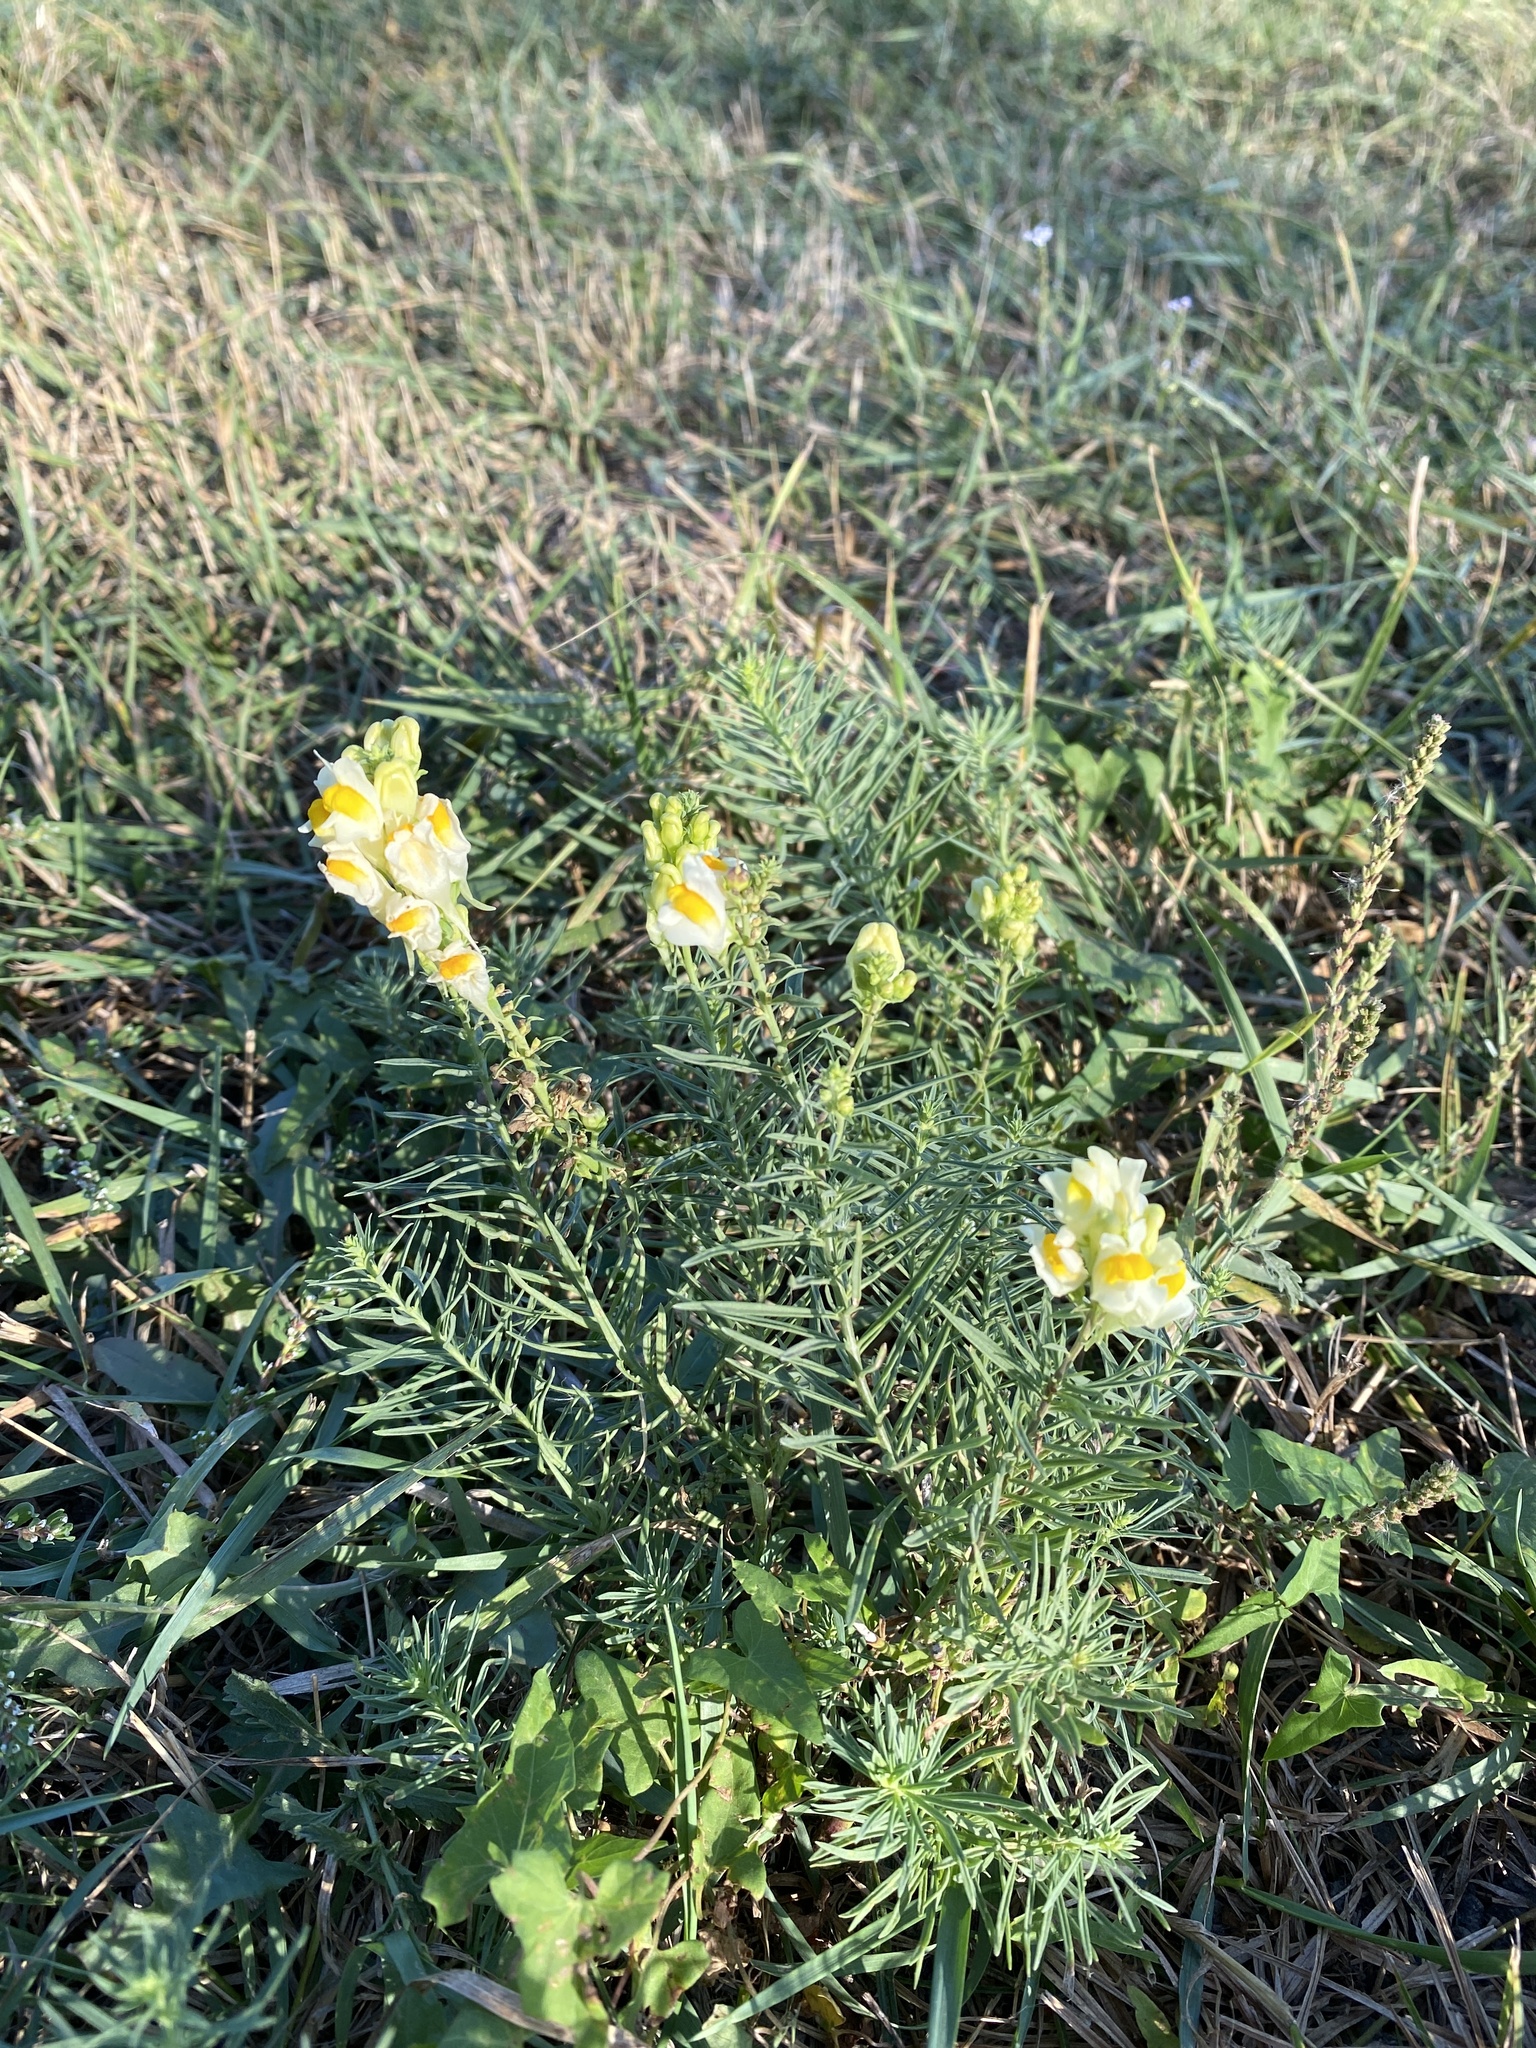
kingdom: Plantae
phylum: Tracheophyta
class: Magnoliopsida
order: Lamiales
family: Plantaginaceae
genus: Linaria
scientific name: Linaria vulgaris
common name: Butter and eggs
